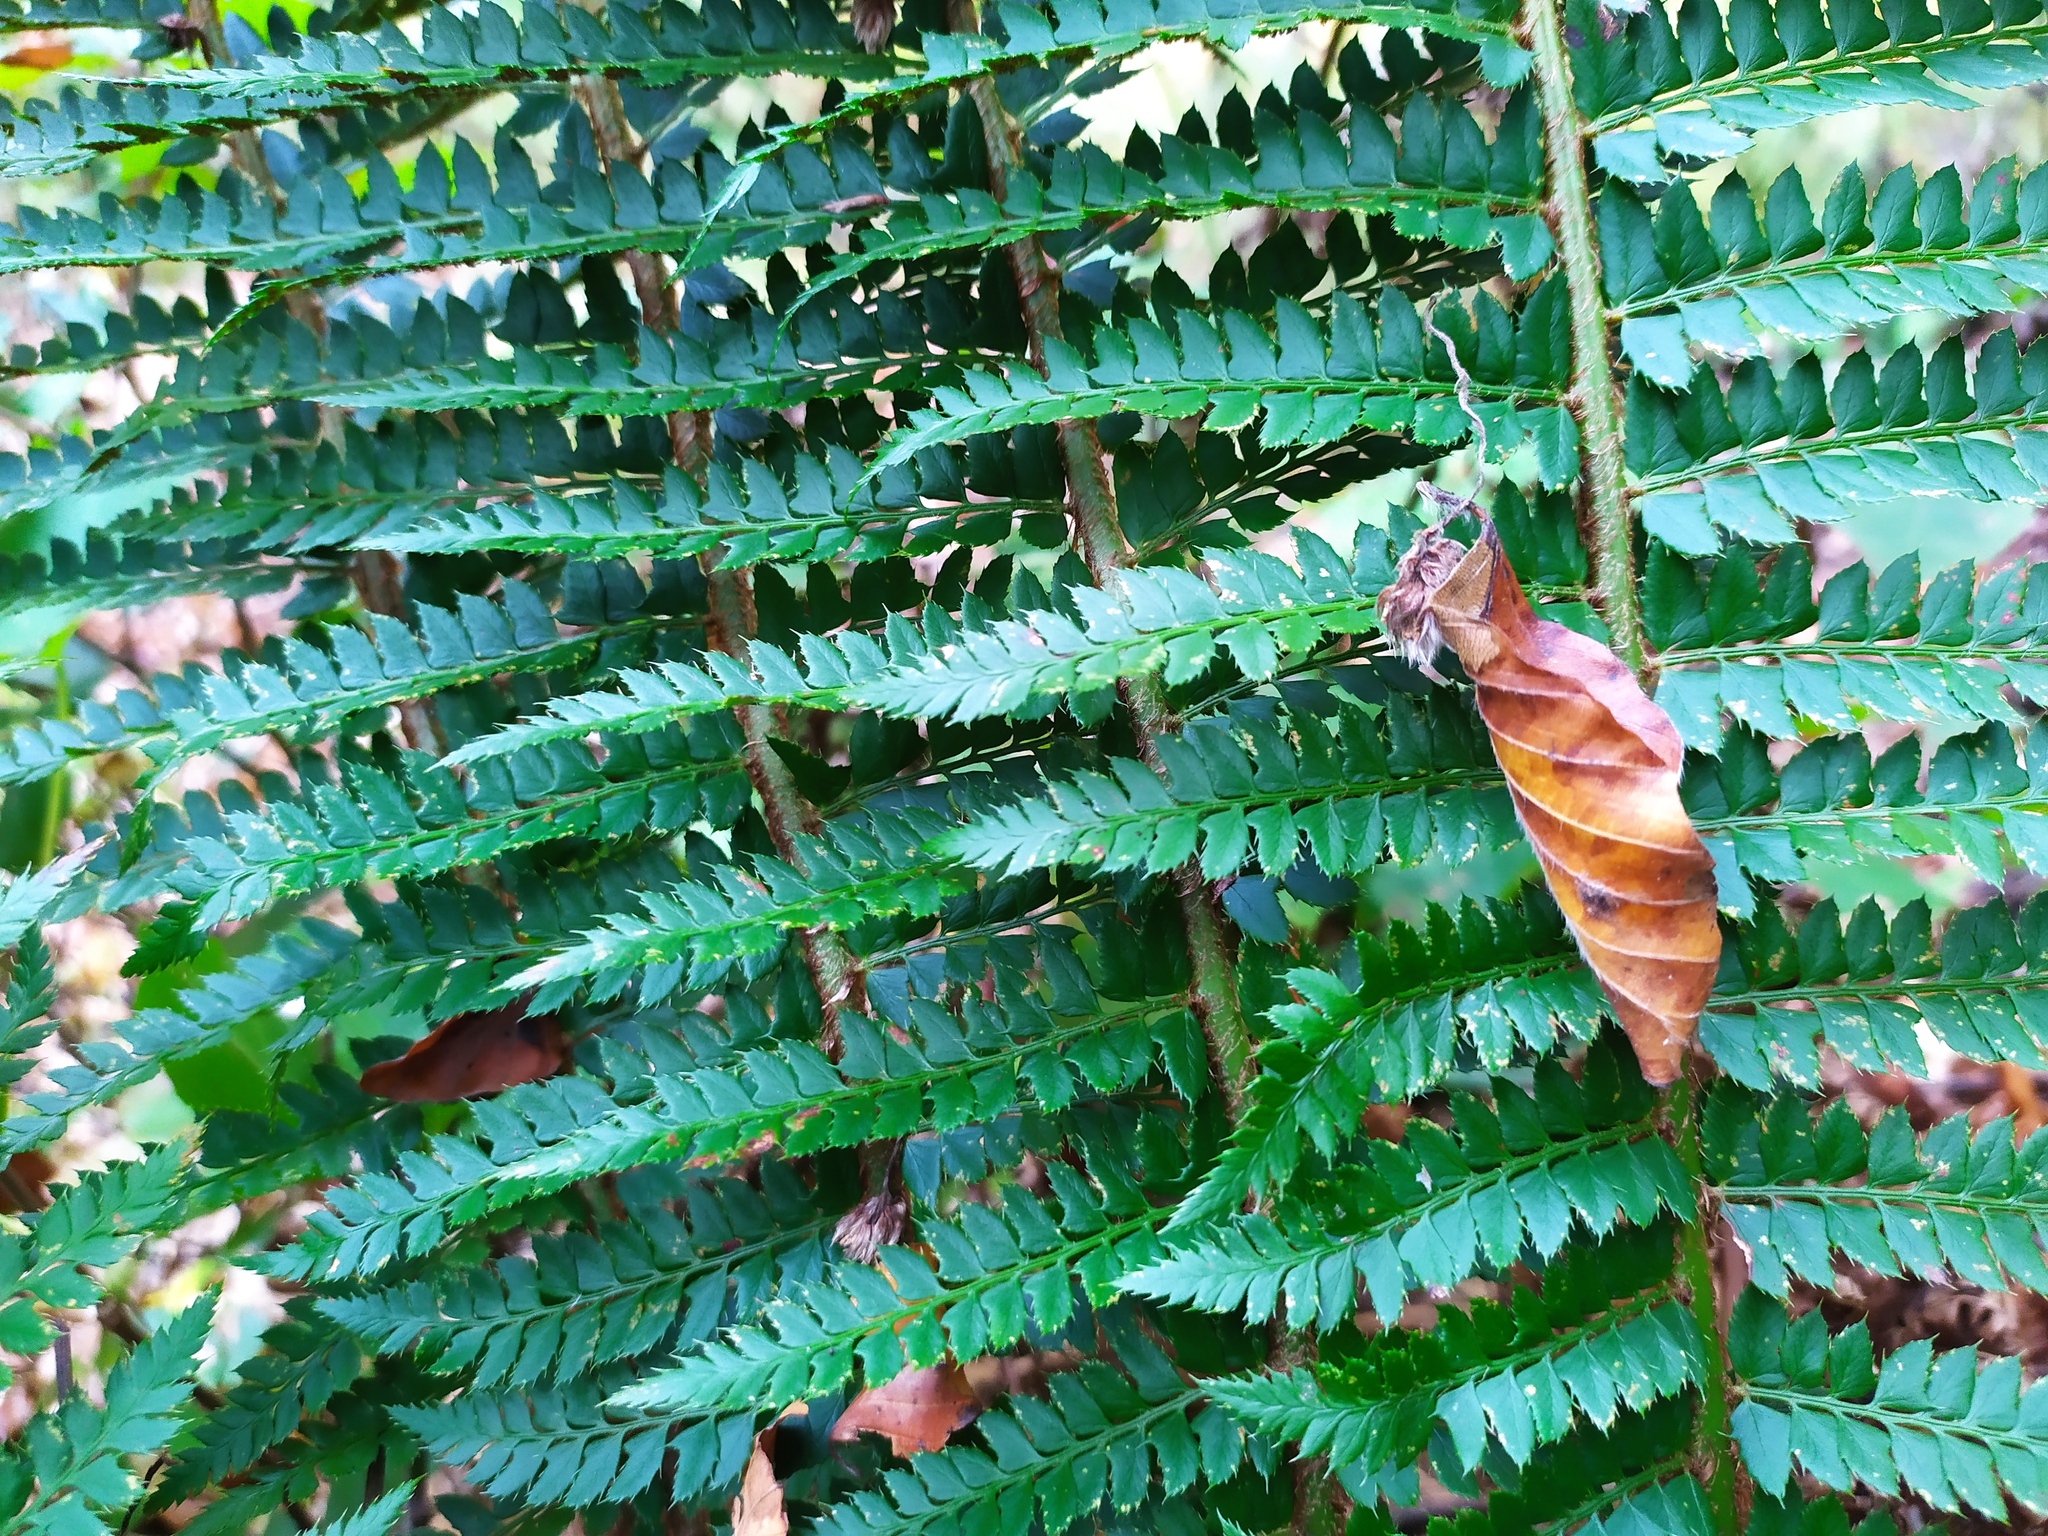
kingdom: Plantae
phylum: Tracheophyta
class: Polypodiopsida
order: Polypodiales
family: Dryopteridaceae
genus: Polystichum
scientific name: Polystichum aculeatum
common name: Hard shield-fern
